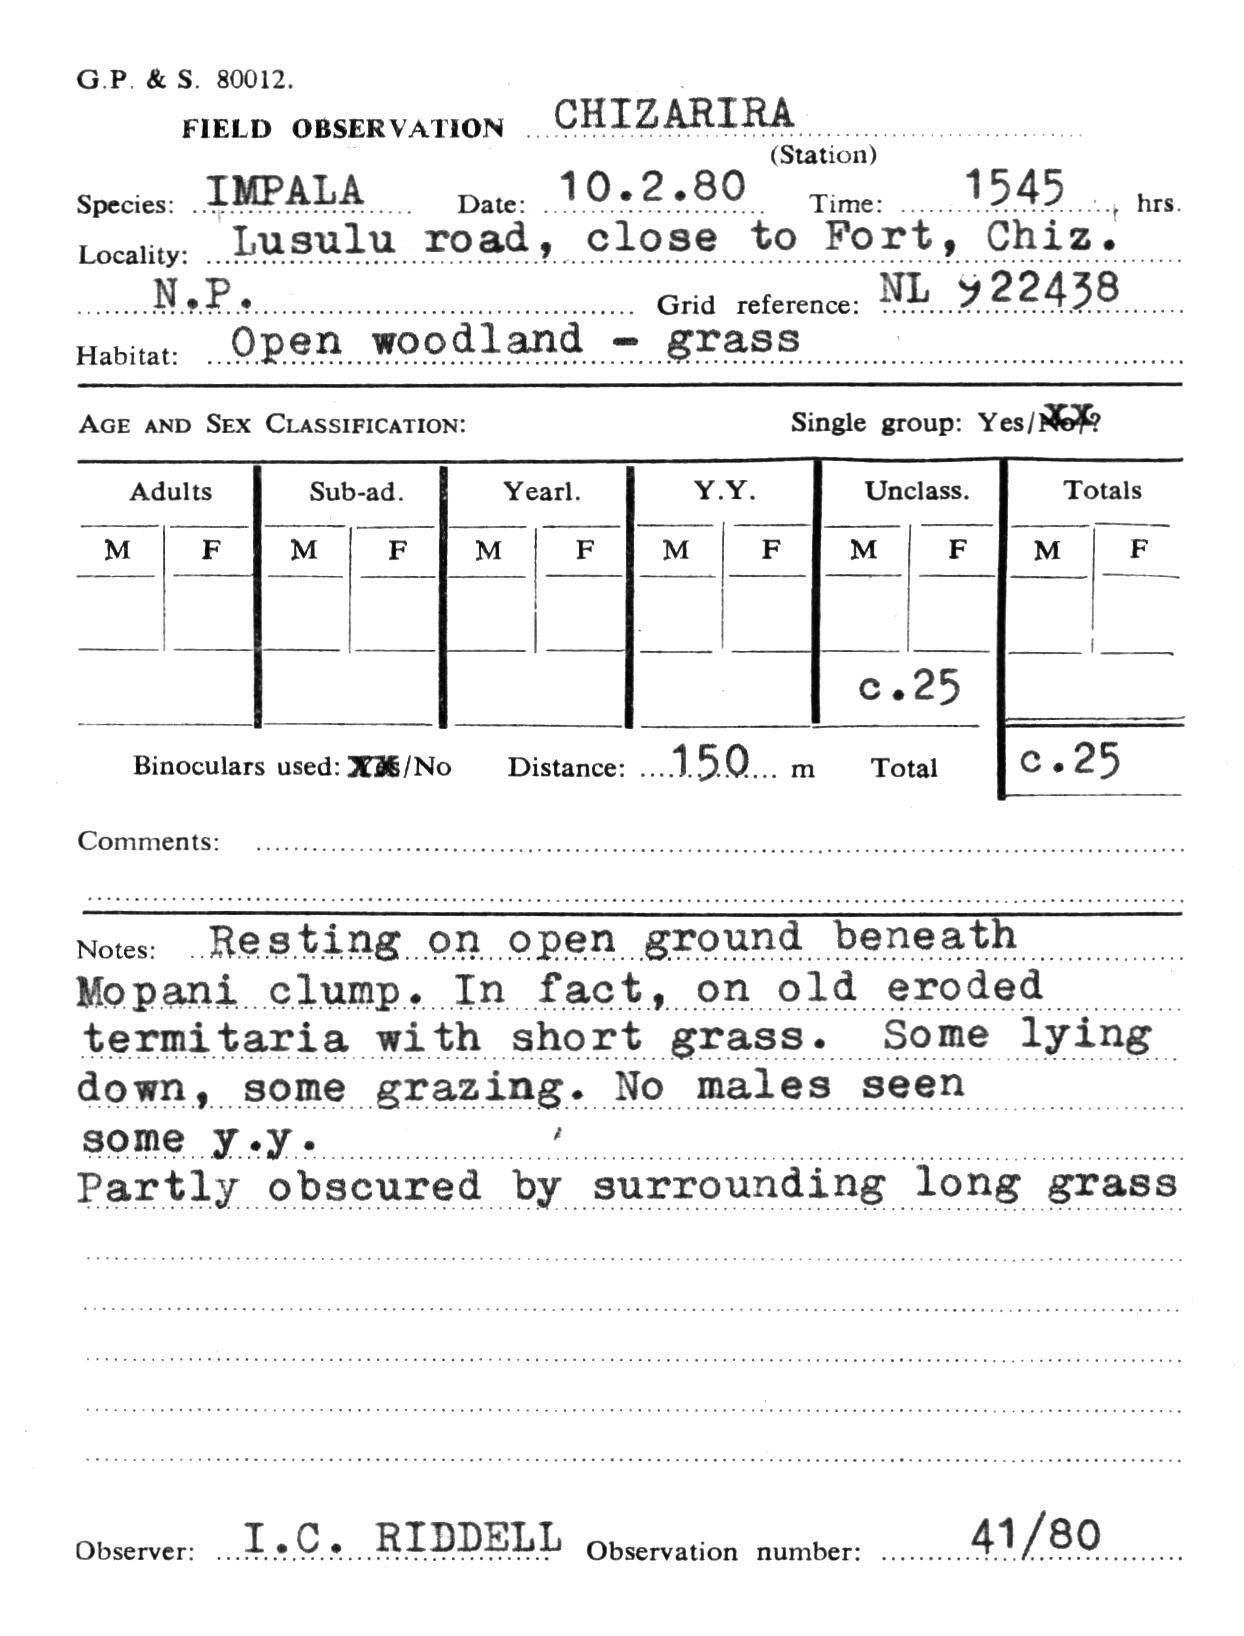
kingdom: Animalia
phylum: Chordata
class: Mammalia
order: Artiodactyla
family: Bovidae
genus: Aepyceros
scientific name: Aepyceros melampus
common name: Impala
